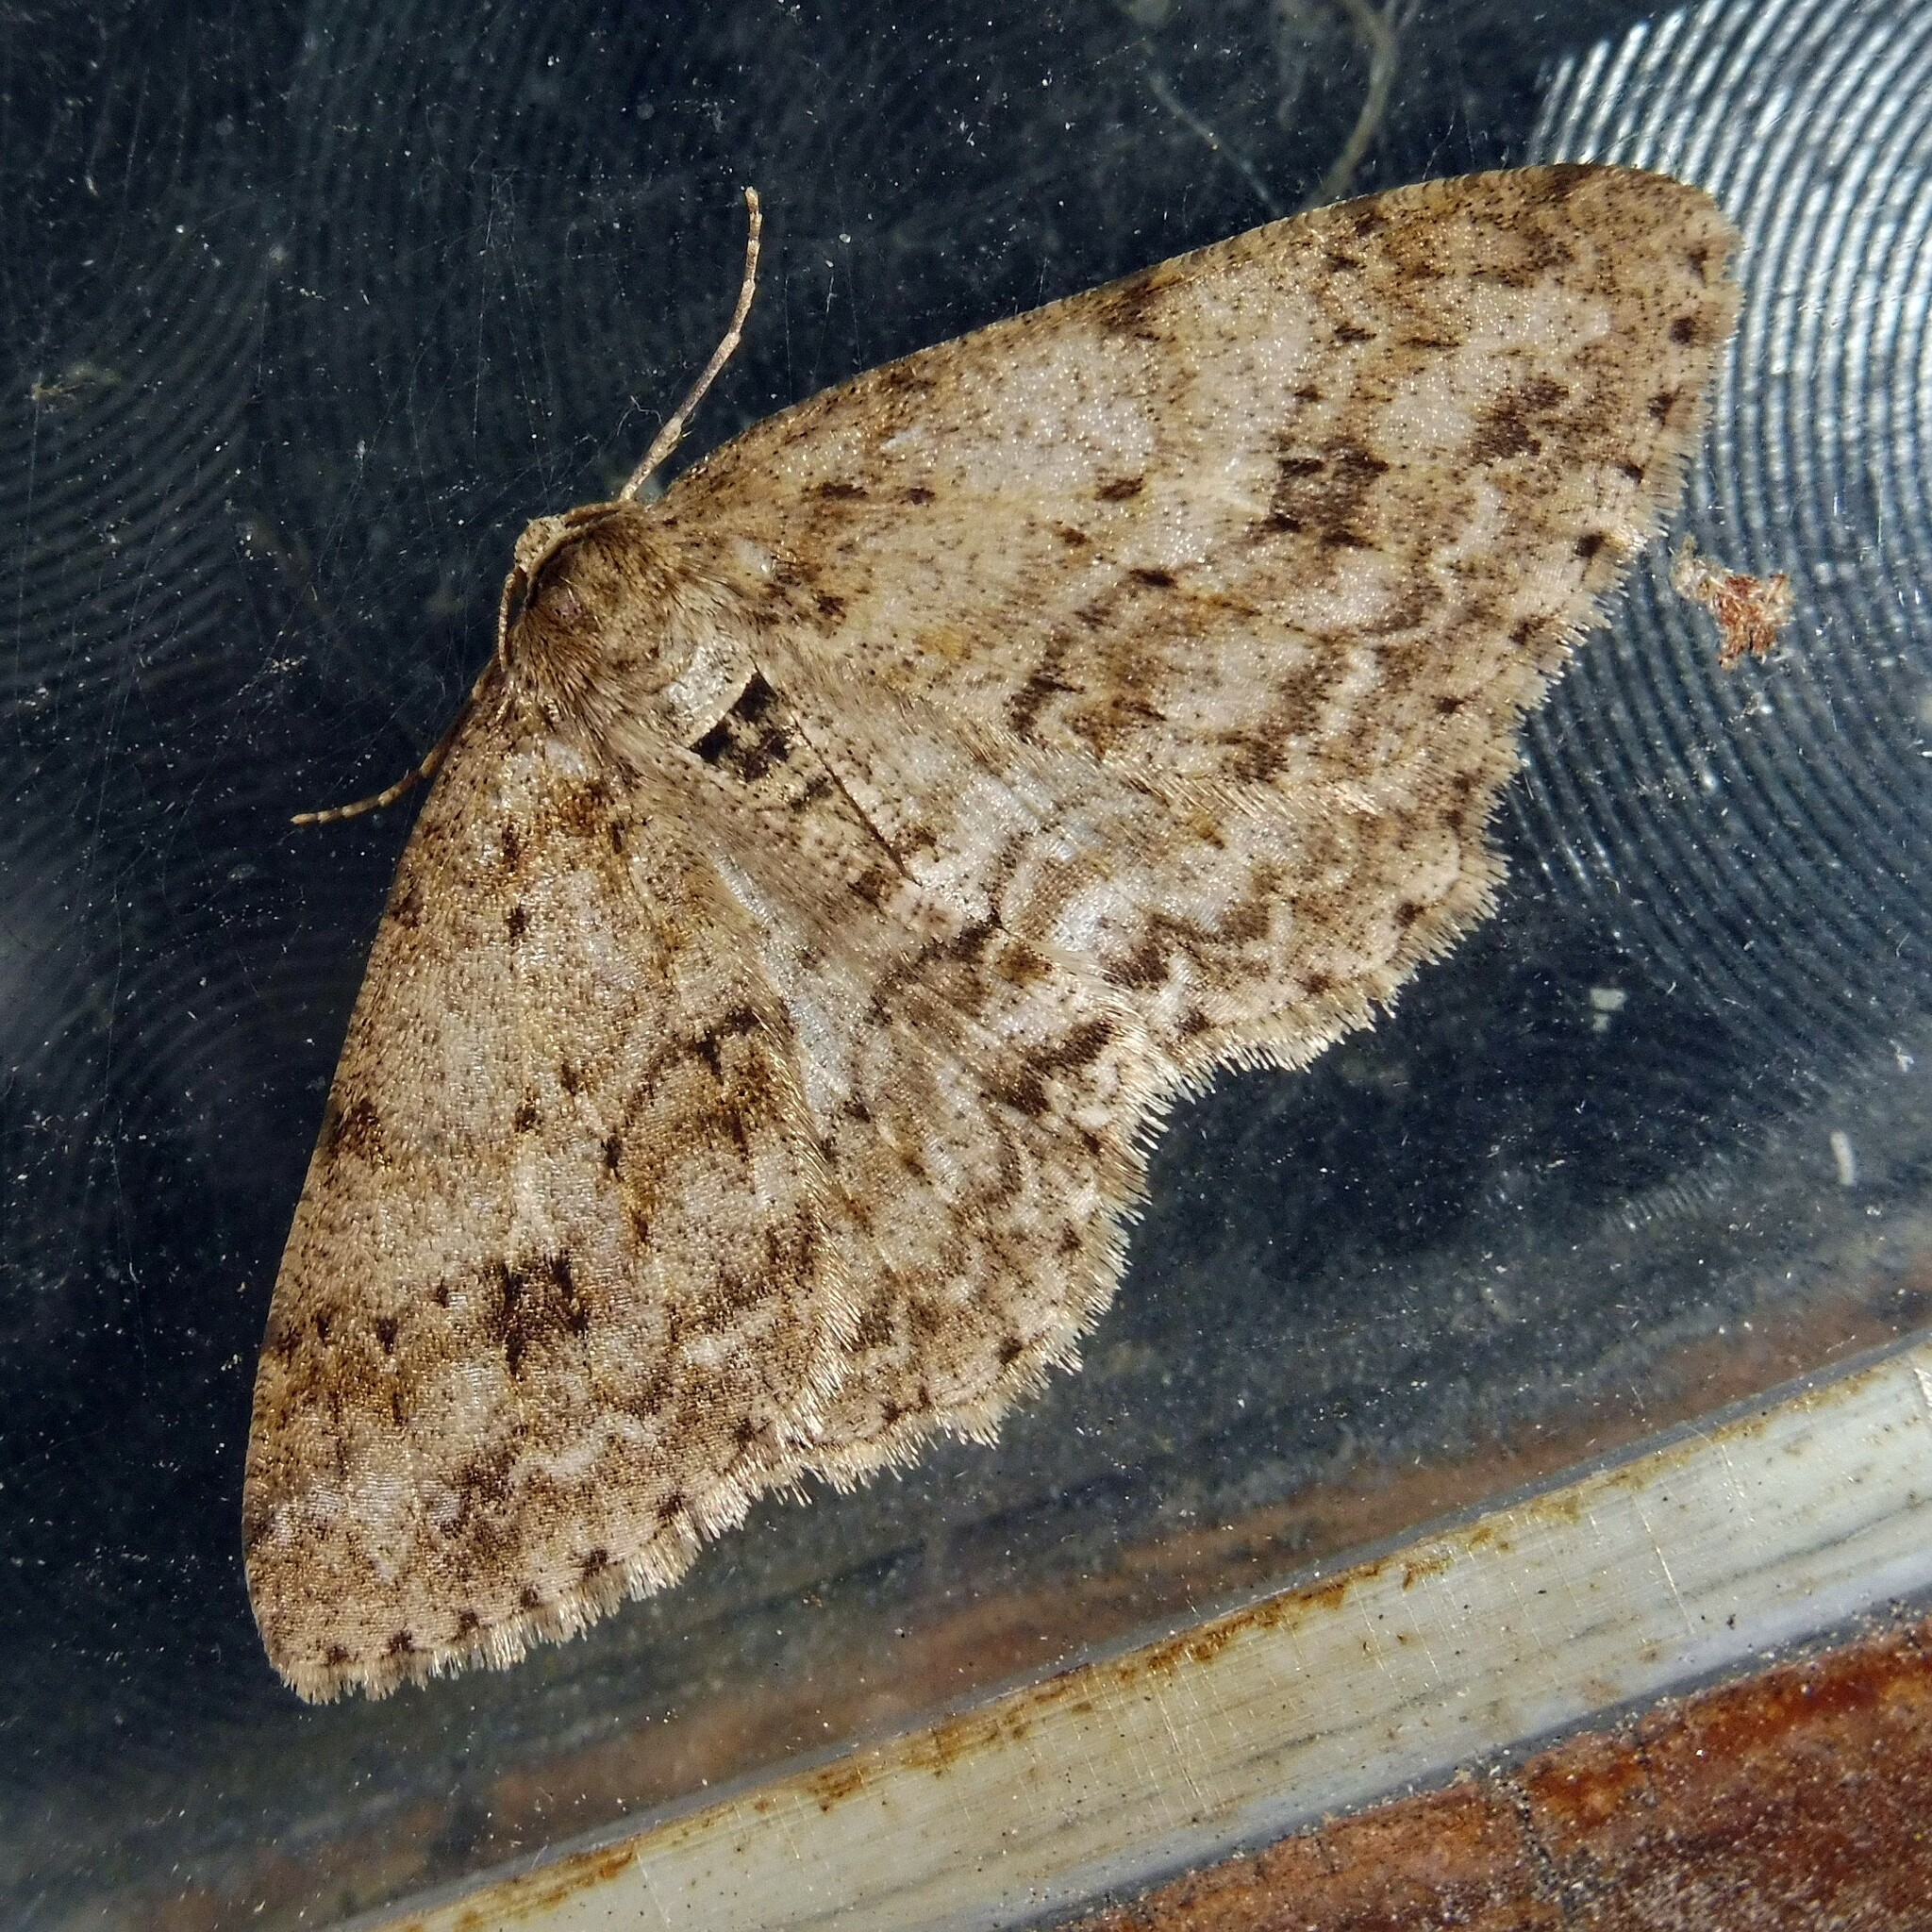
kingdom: Animalia
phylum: Arthropoda
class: Insecta
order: Lepidoptera
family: Geometridae
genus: Ectropis
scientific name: Ectropis crepuscularia
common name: Engrailed
